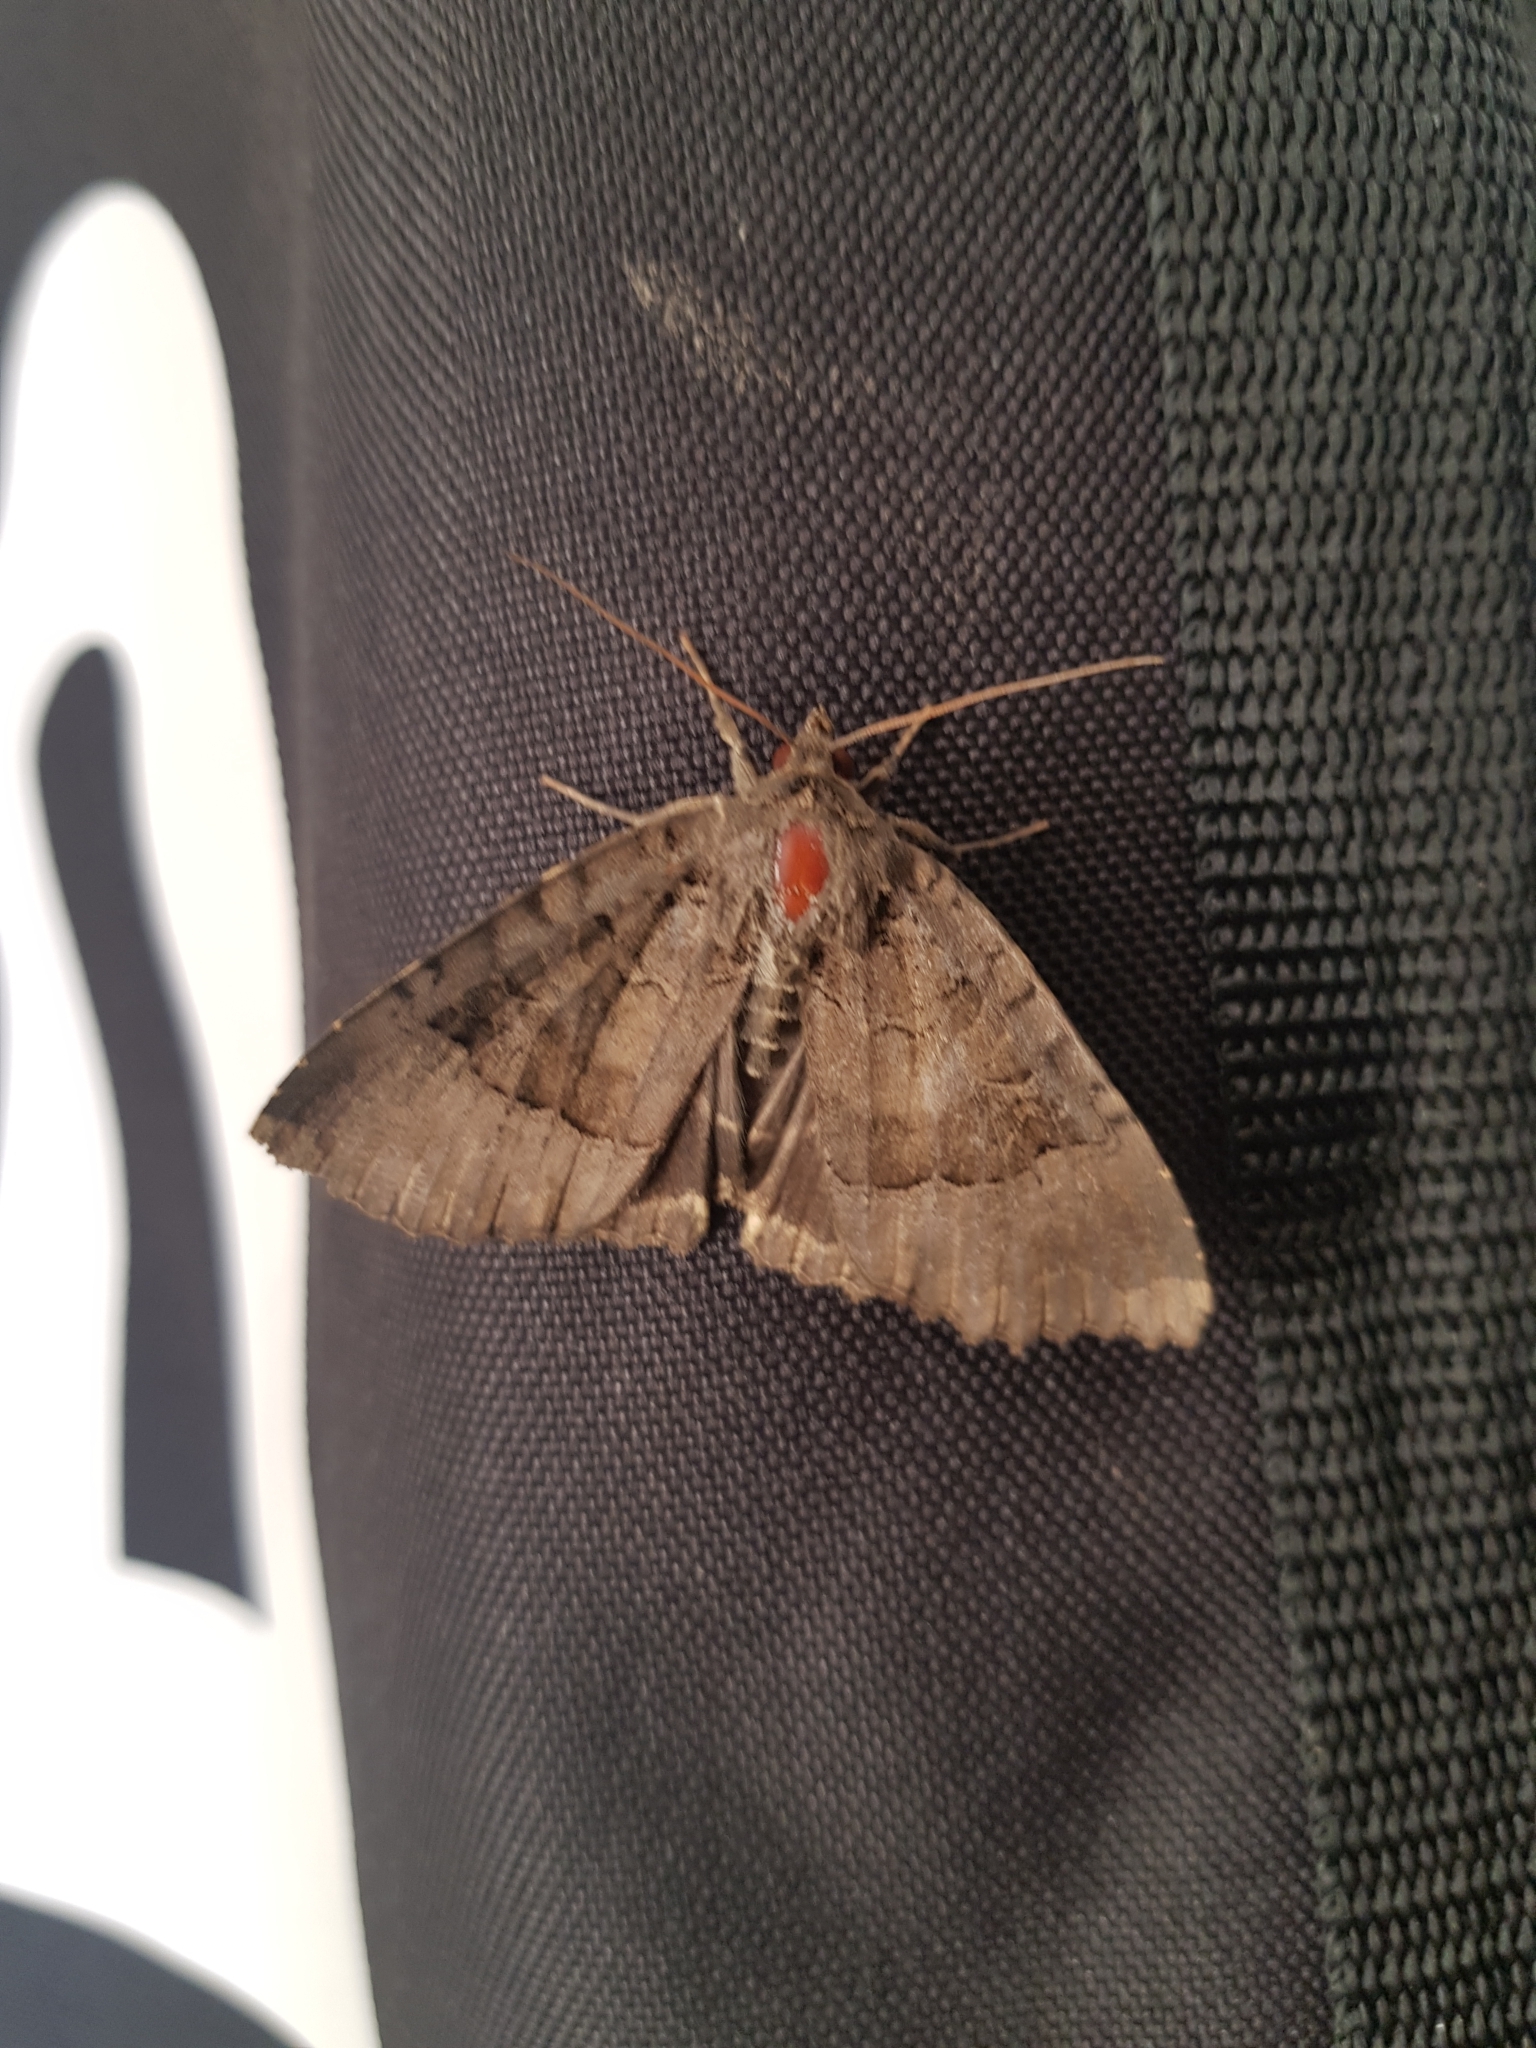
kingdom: Animalia
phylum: Arthropoda
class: Insecta
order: Lepidoptera
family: Noctuidae
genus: Mormo
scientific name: Mormo maura
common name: Old lady
